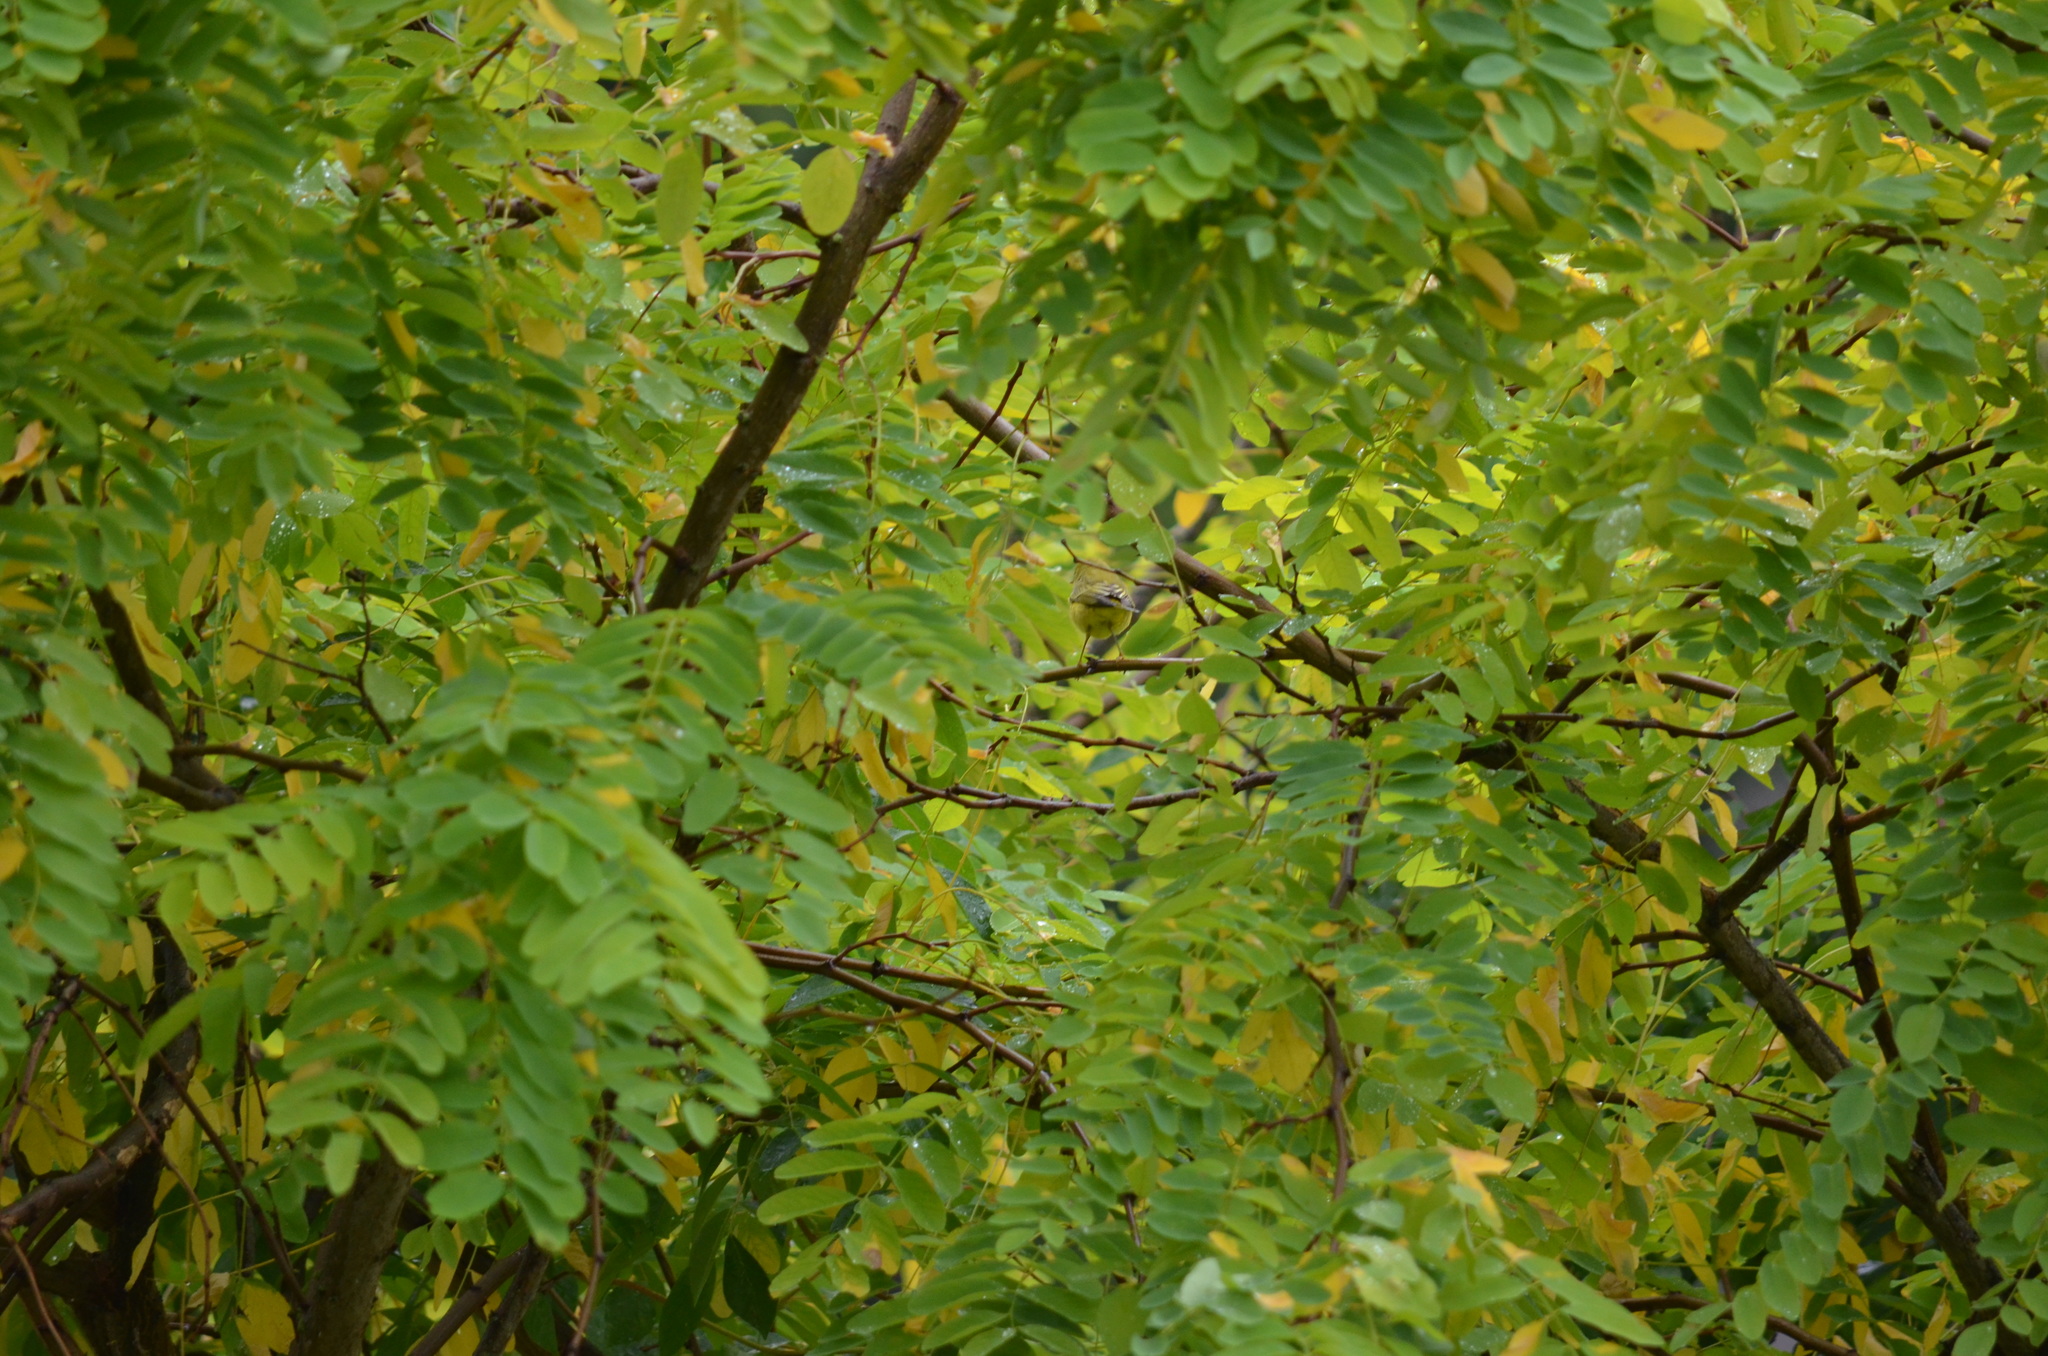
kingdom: Animalia
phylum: Chordata
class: Aves
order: Passeriformes
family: Parulidae
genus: Setophaga
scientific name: Setophaga petechia
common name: Yellow warbler
